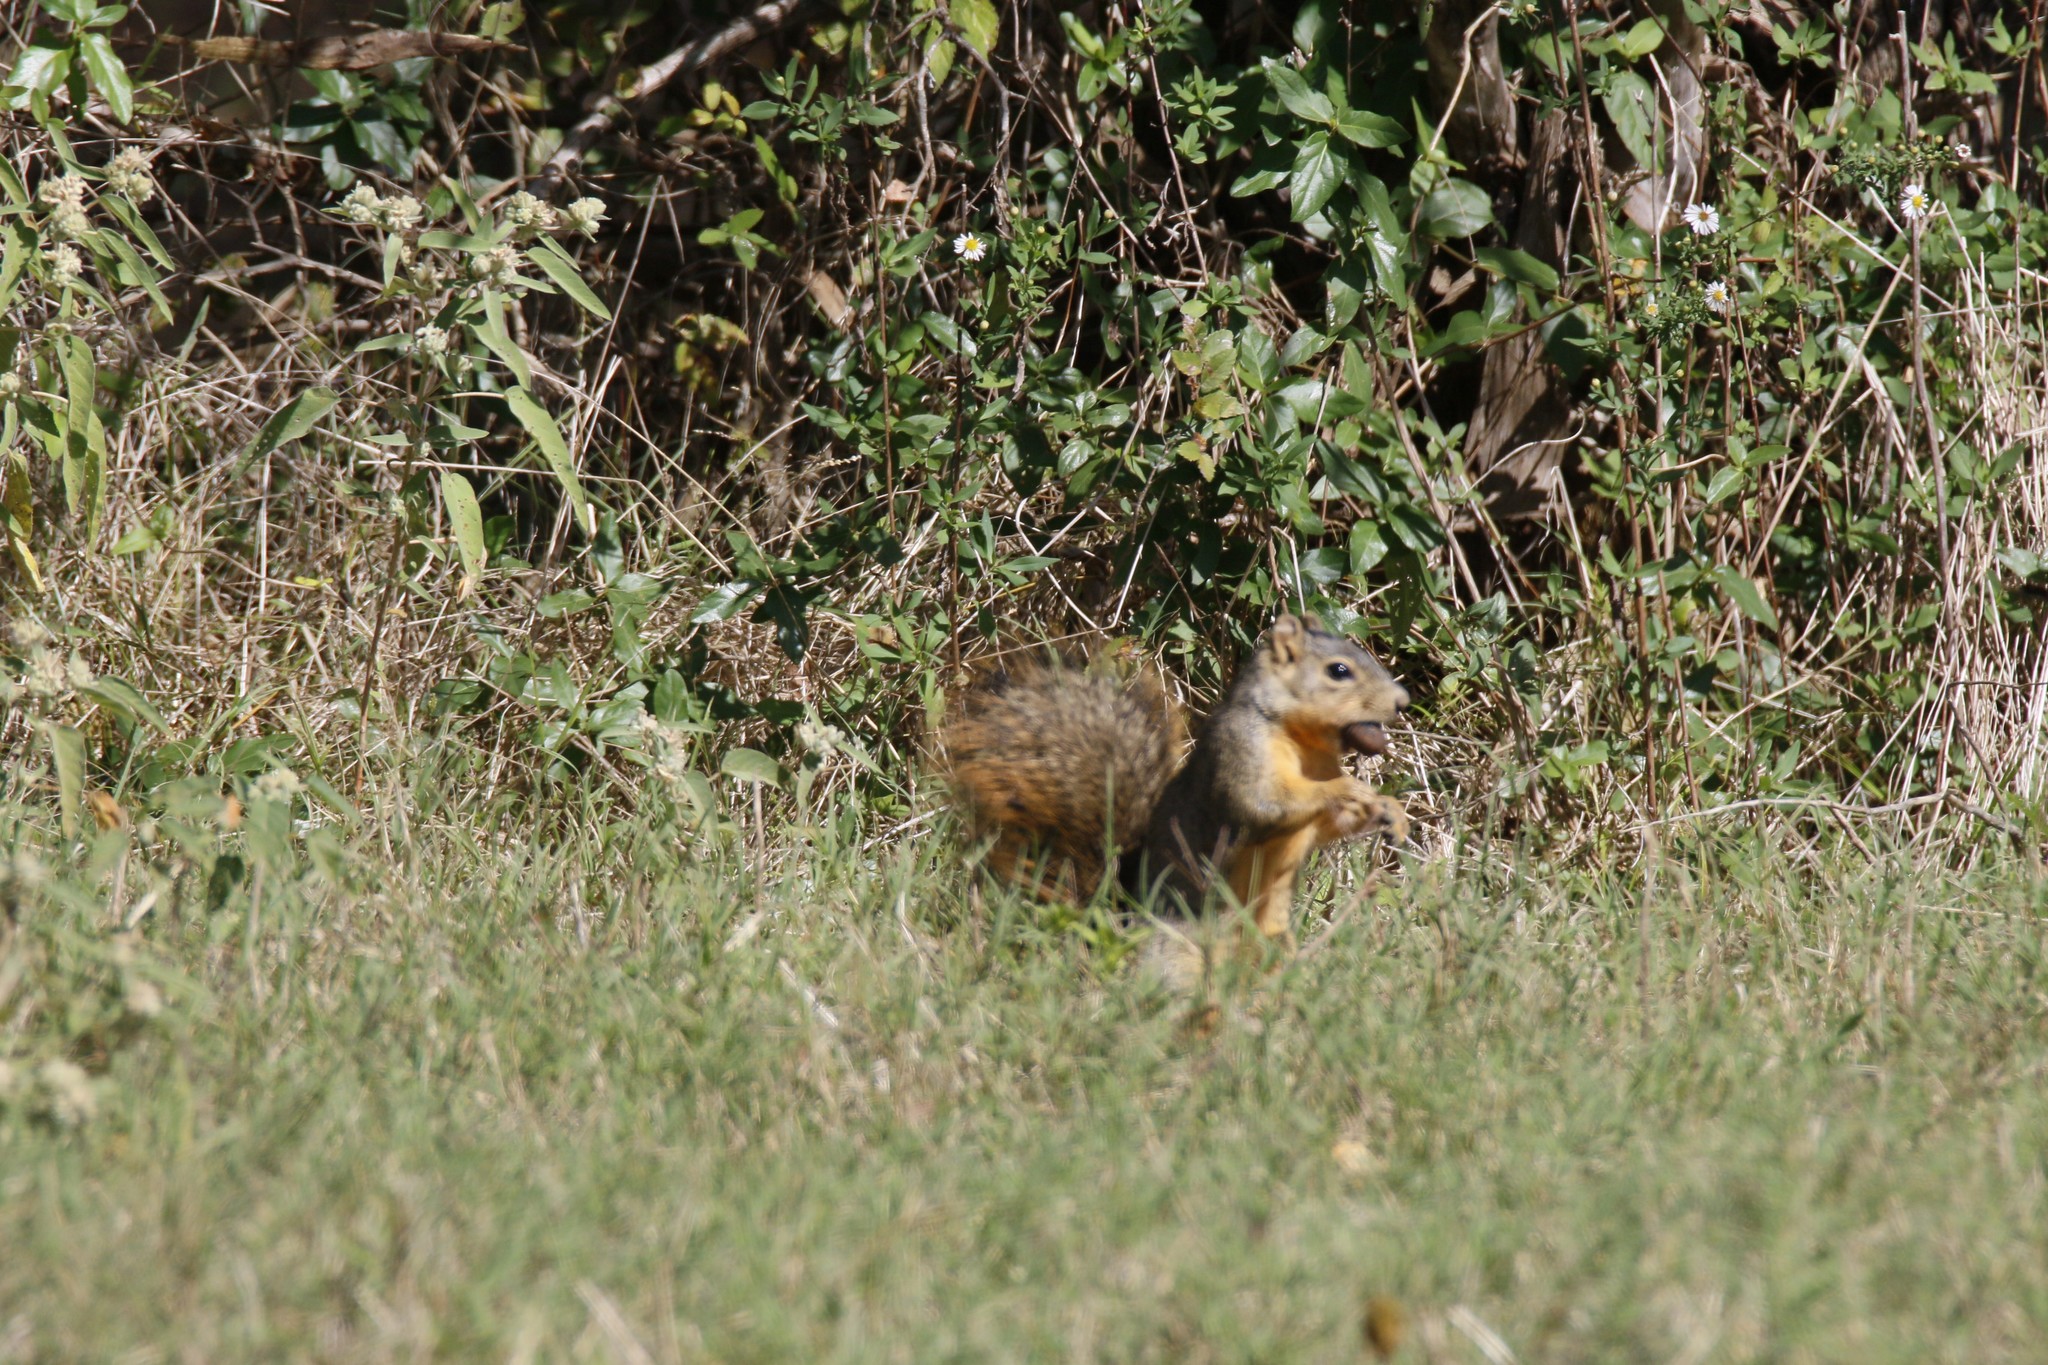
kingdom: Animalia
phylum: Chordata
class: Mammalia
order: Rodentia
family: Sciuridae
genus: Sciurus
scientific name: Sciurus niger
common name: Fox squirrel
